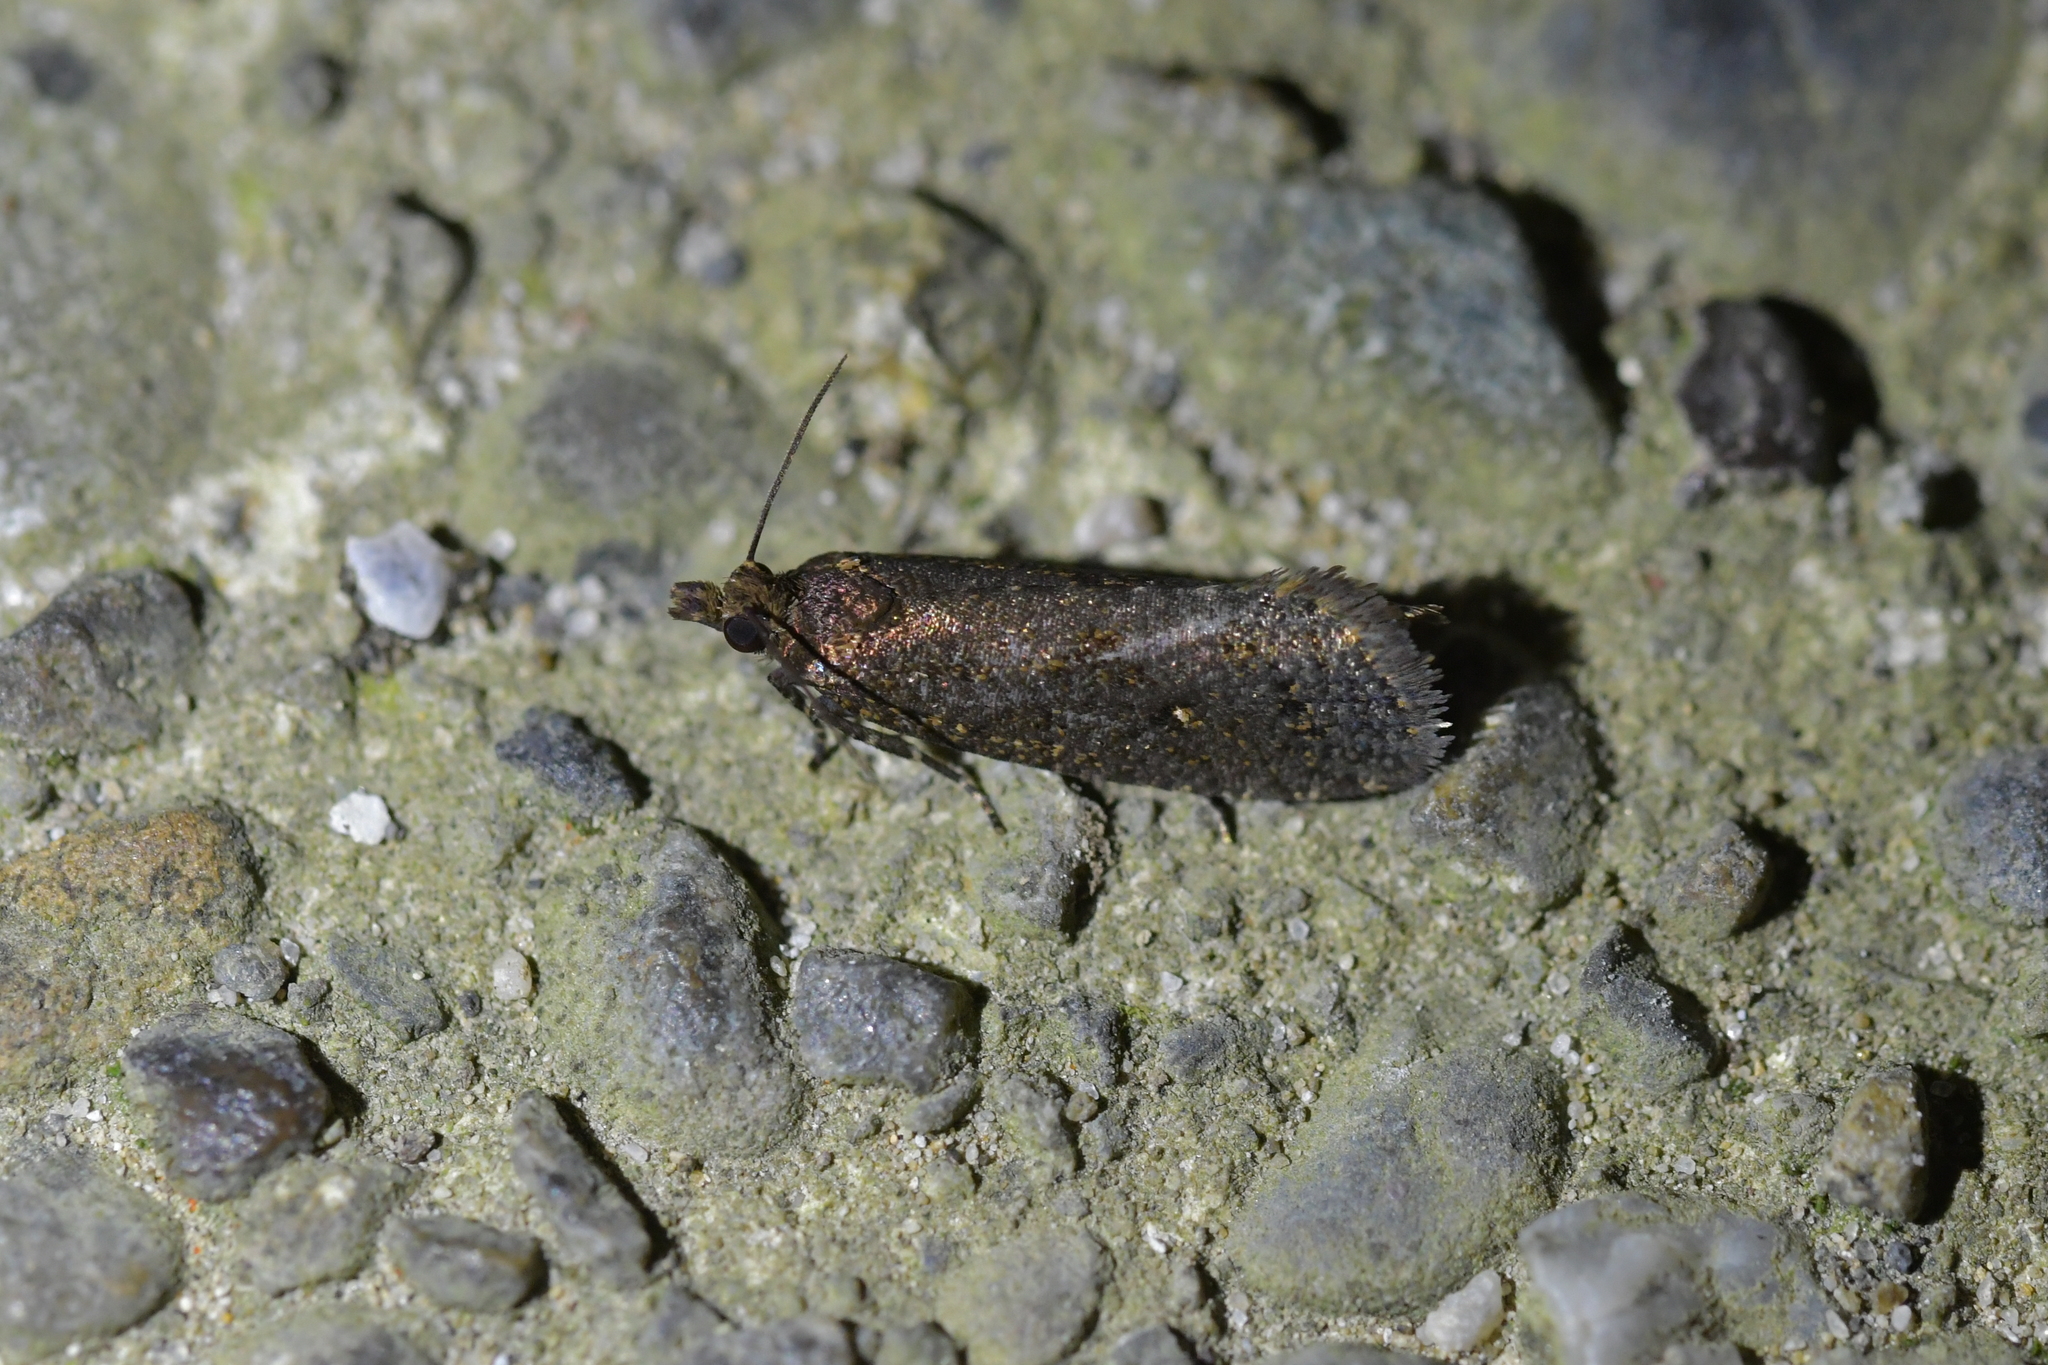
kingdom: Animalia
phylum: Arthropoda
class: Insecta
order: Lepidoptera
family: Tortricidae
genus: Cryptaspasma
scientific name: Cryptaspasma querula
